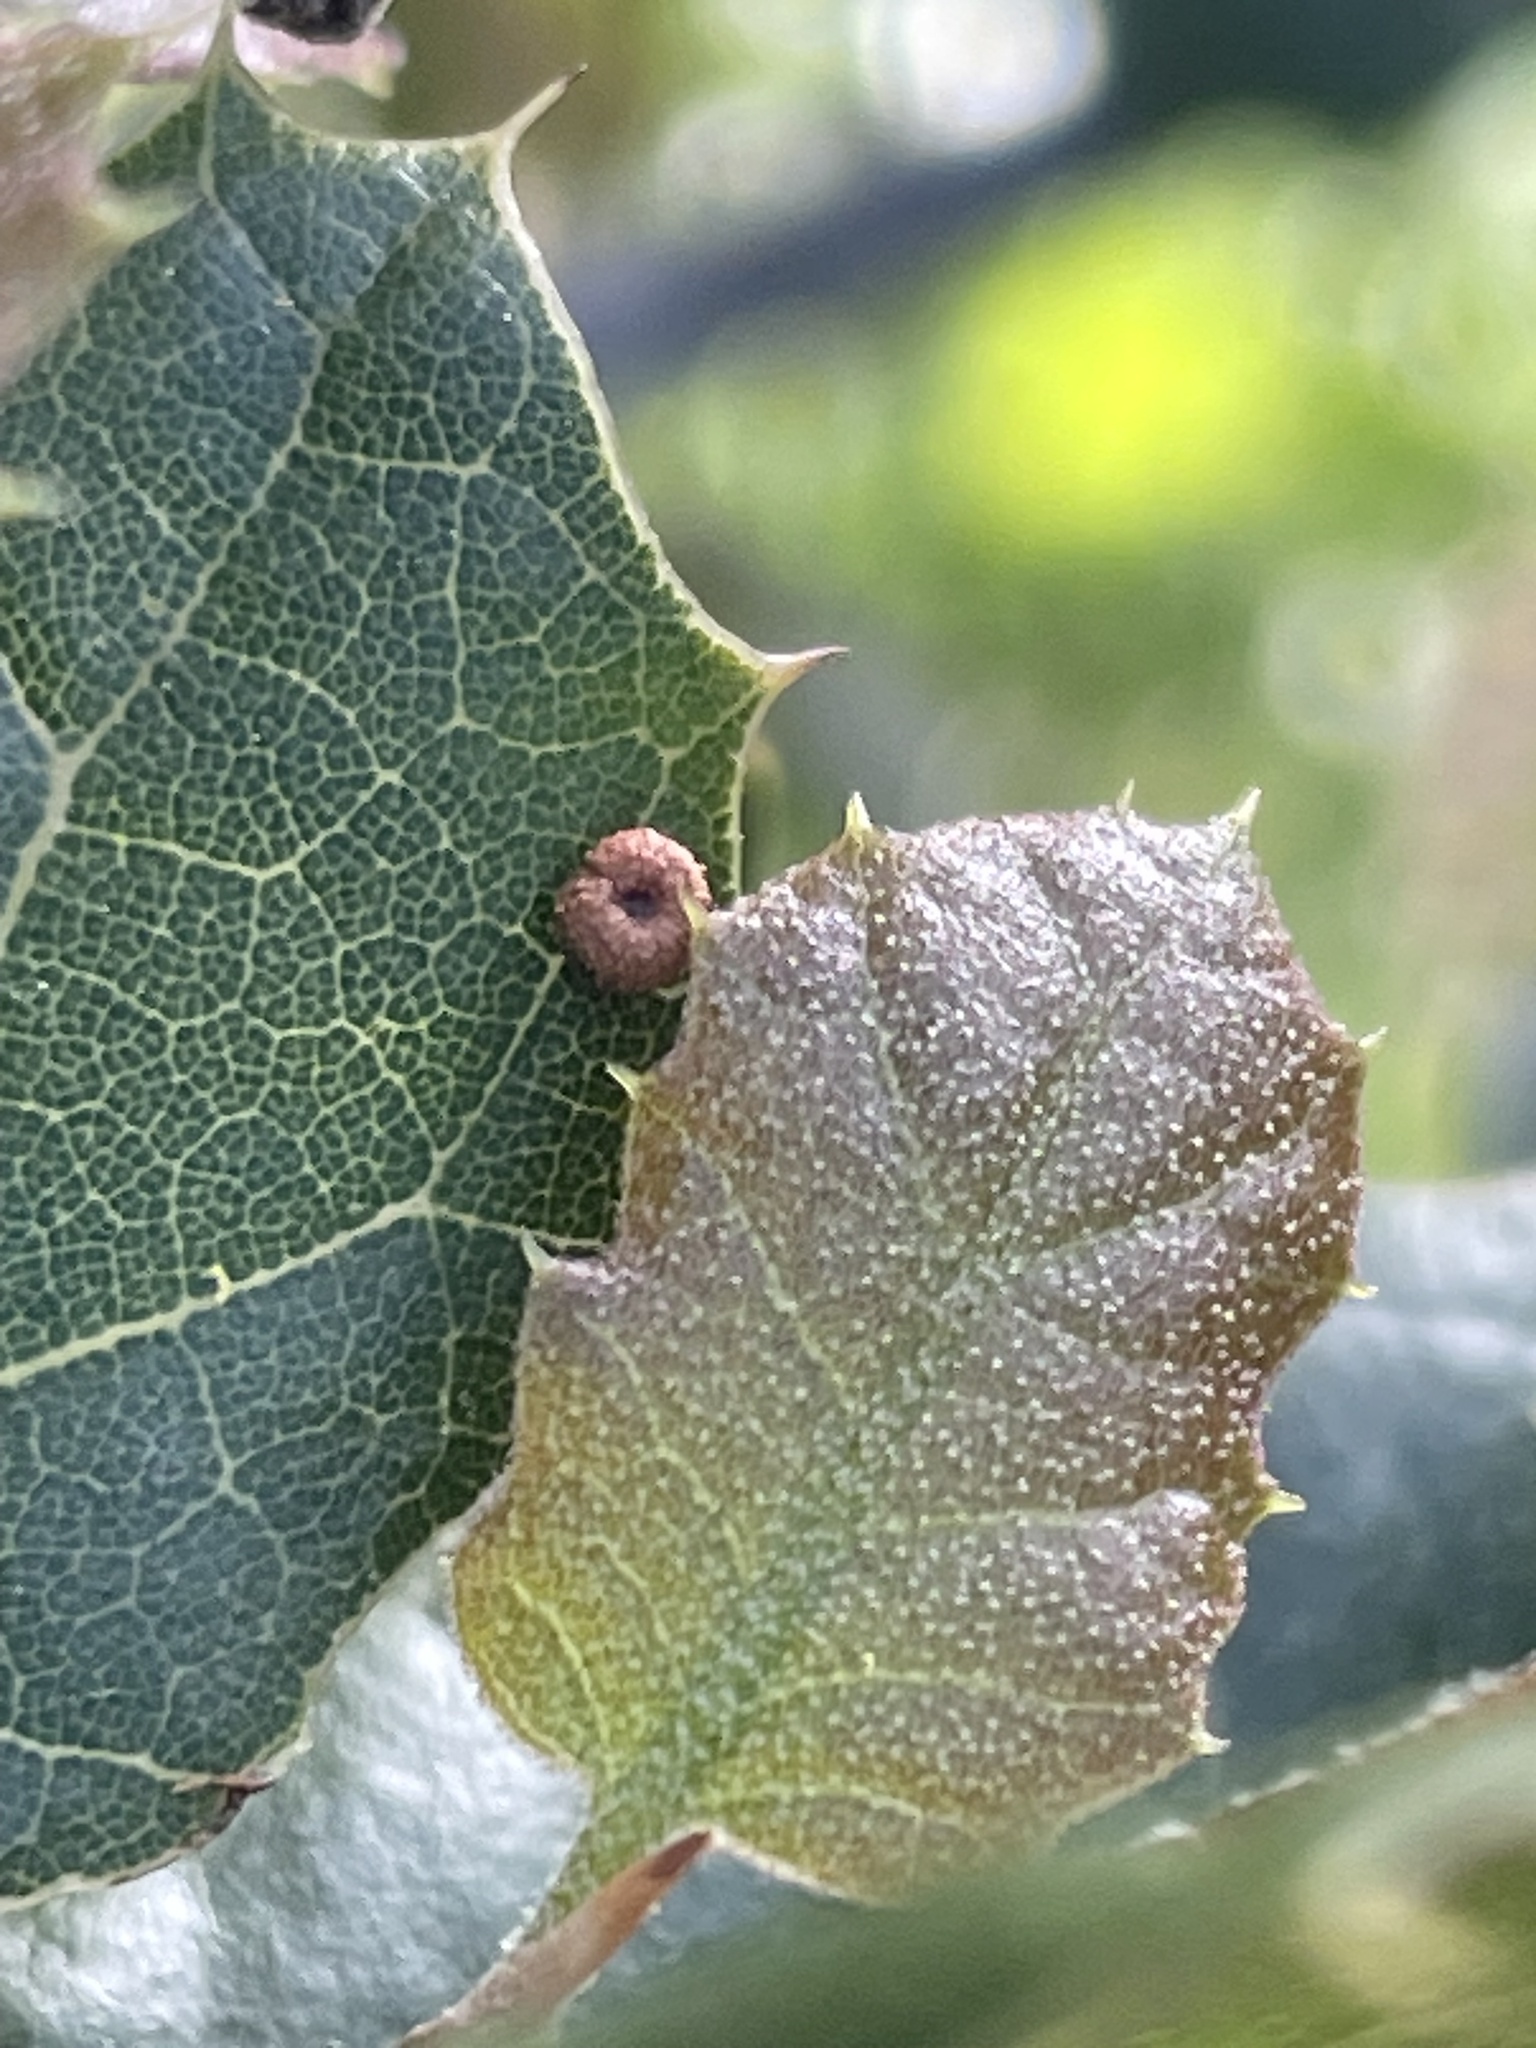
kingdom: Animalia
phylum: Arthropoda
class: Insecta
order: Hymenoptera
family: Cynipidae
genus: Dryocosmus
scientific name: Dryocosmus
